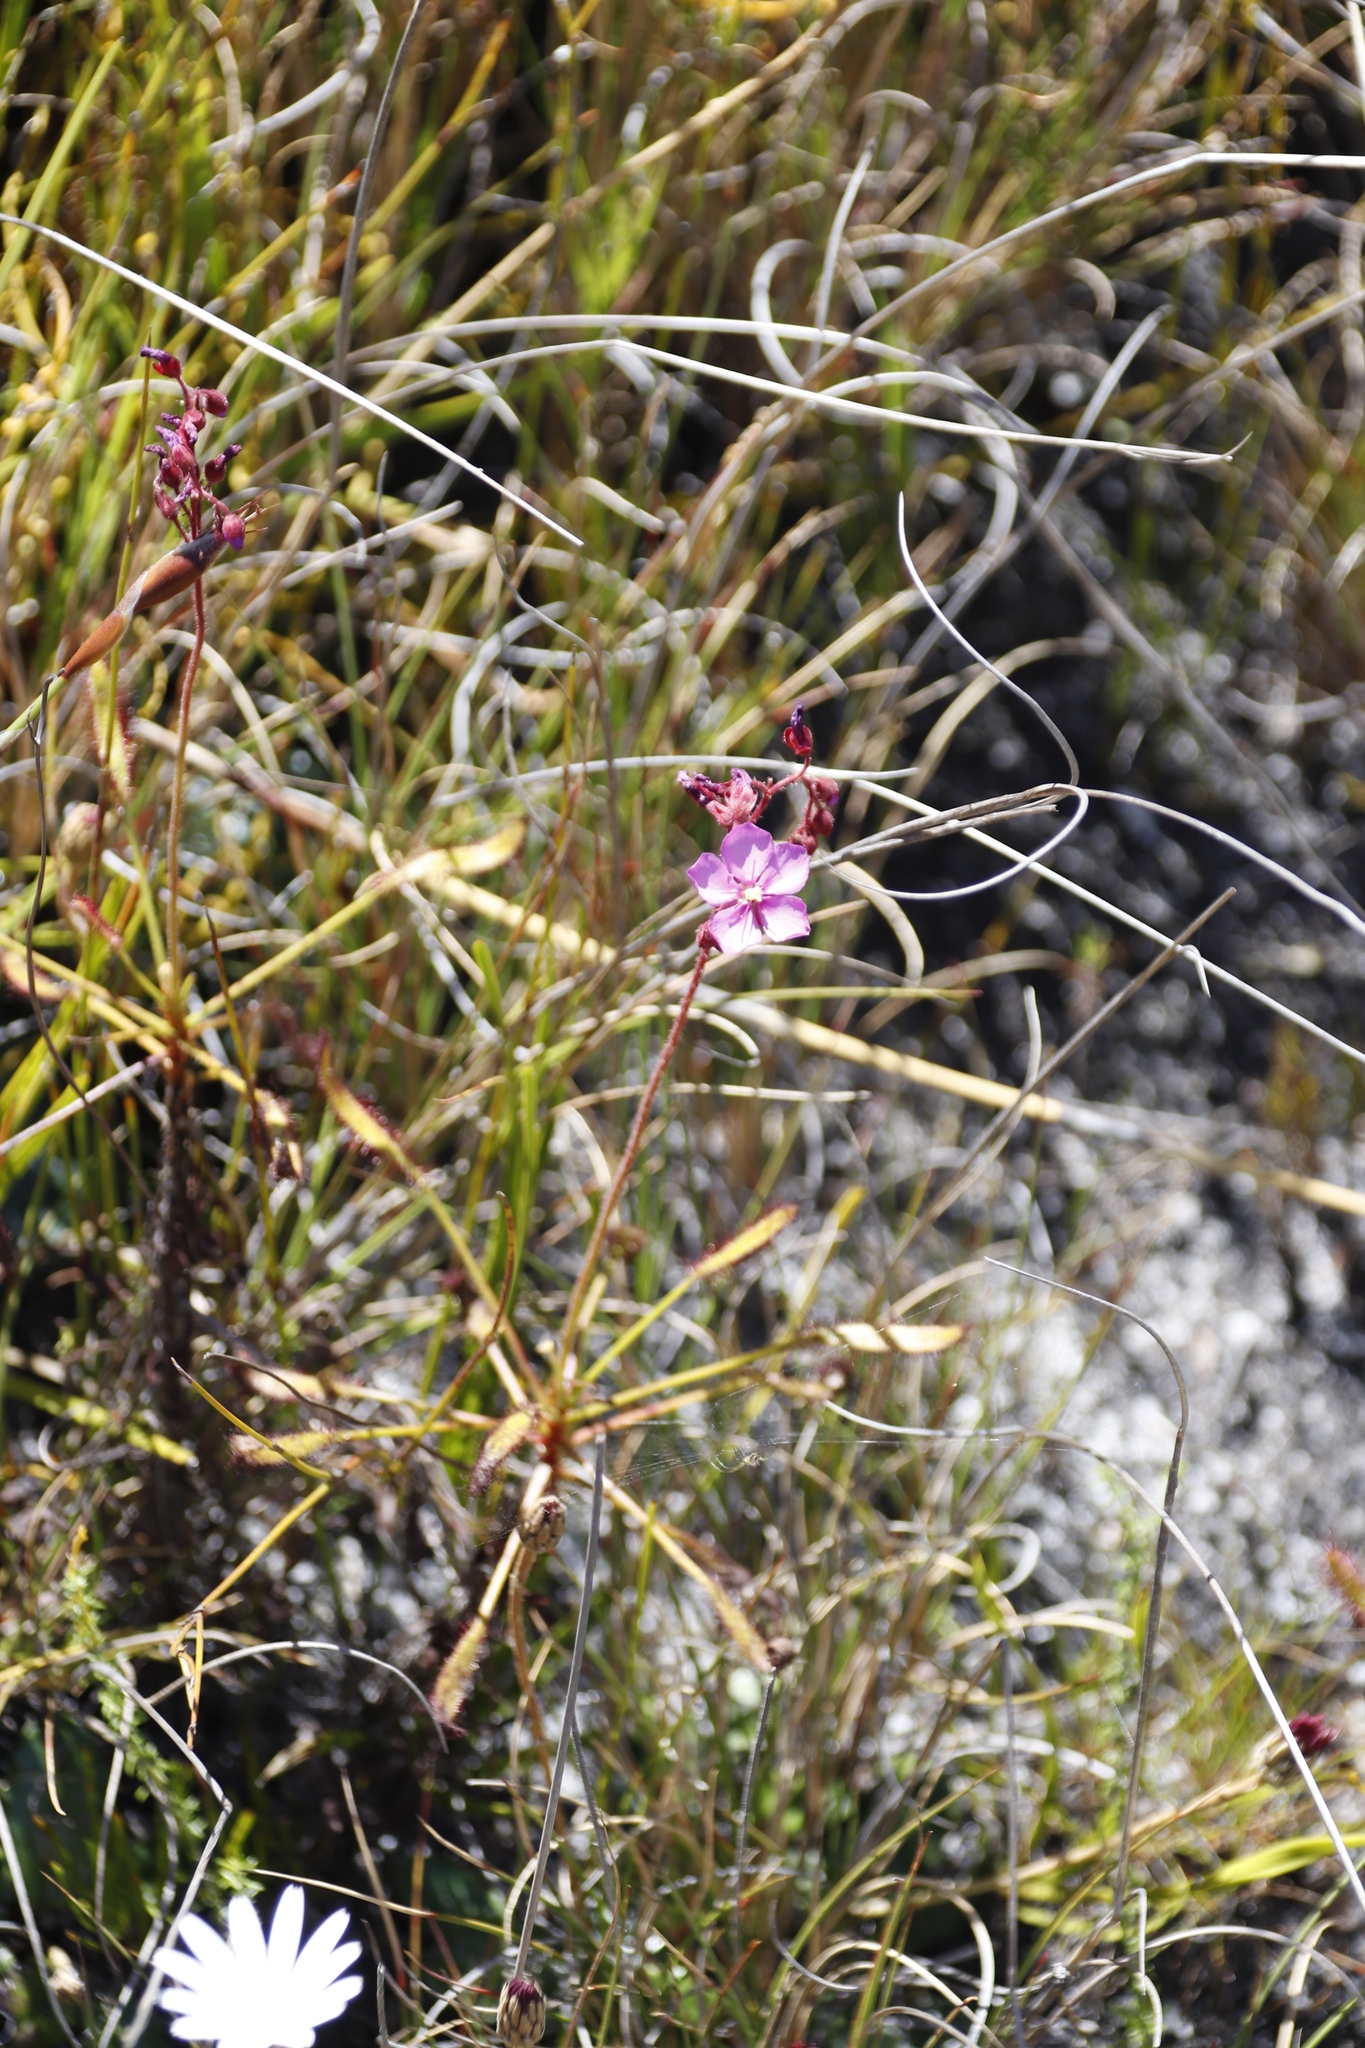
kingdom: Plantae
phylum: Tracheophyta
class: Magnoliopsida
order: Caryophyllales
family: Droseraceae
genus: Drosera
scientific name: Drosera ramentacea
